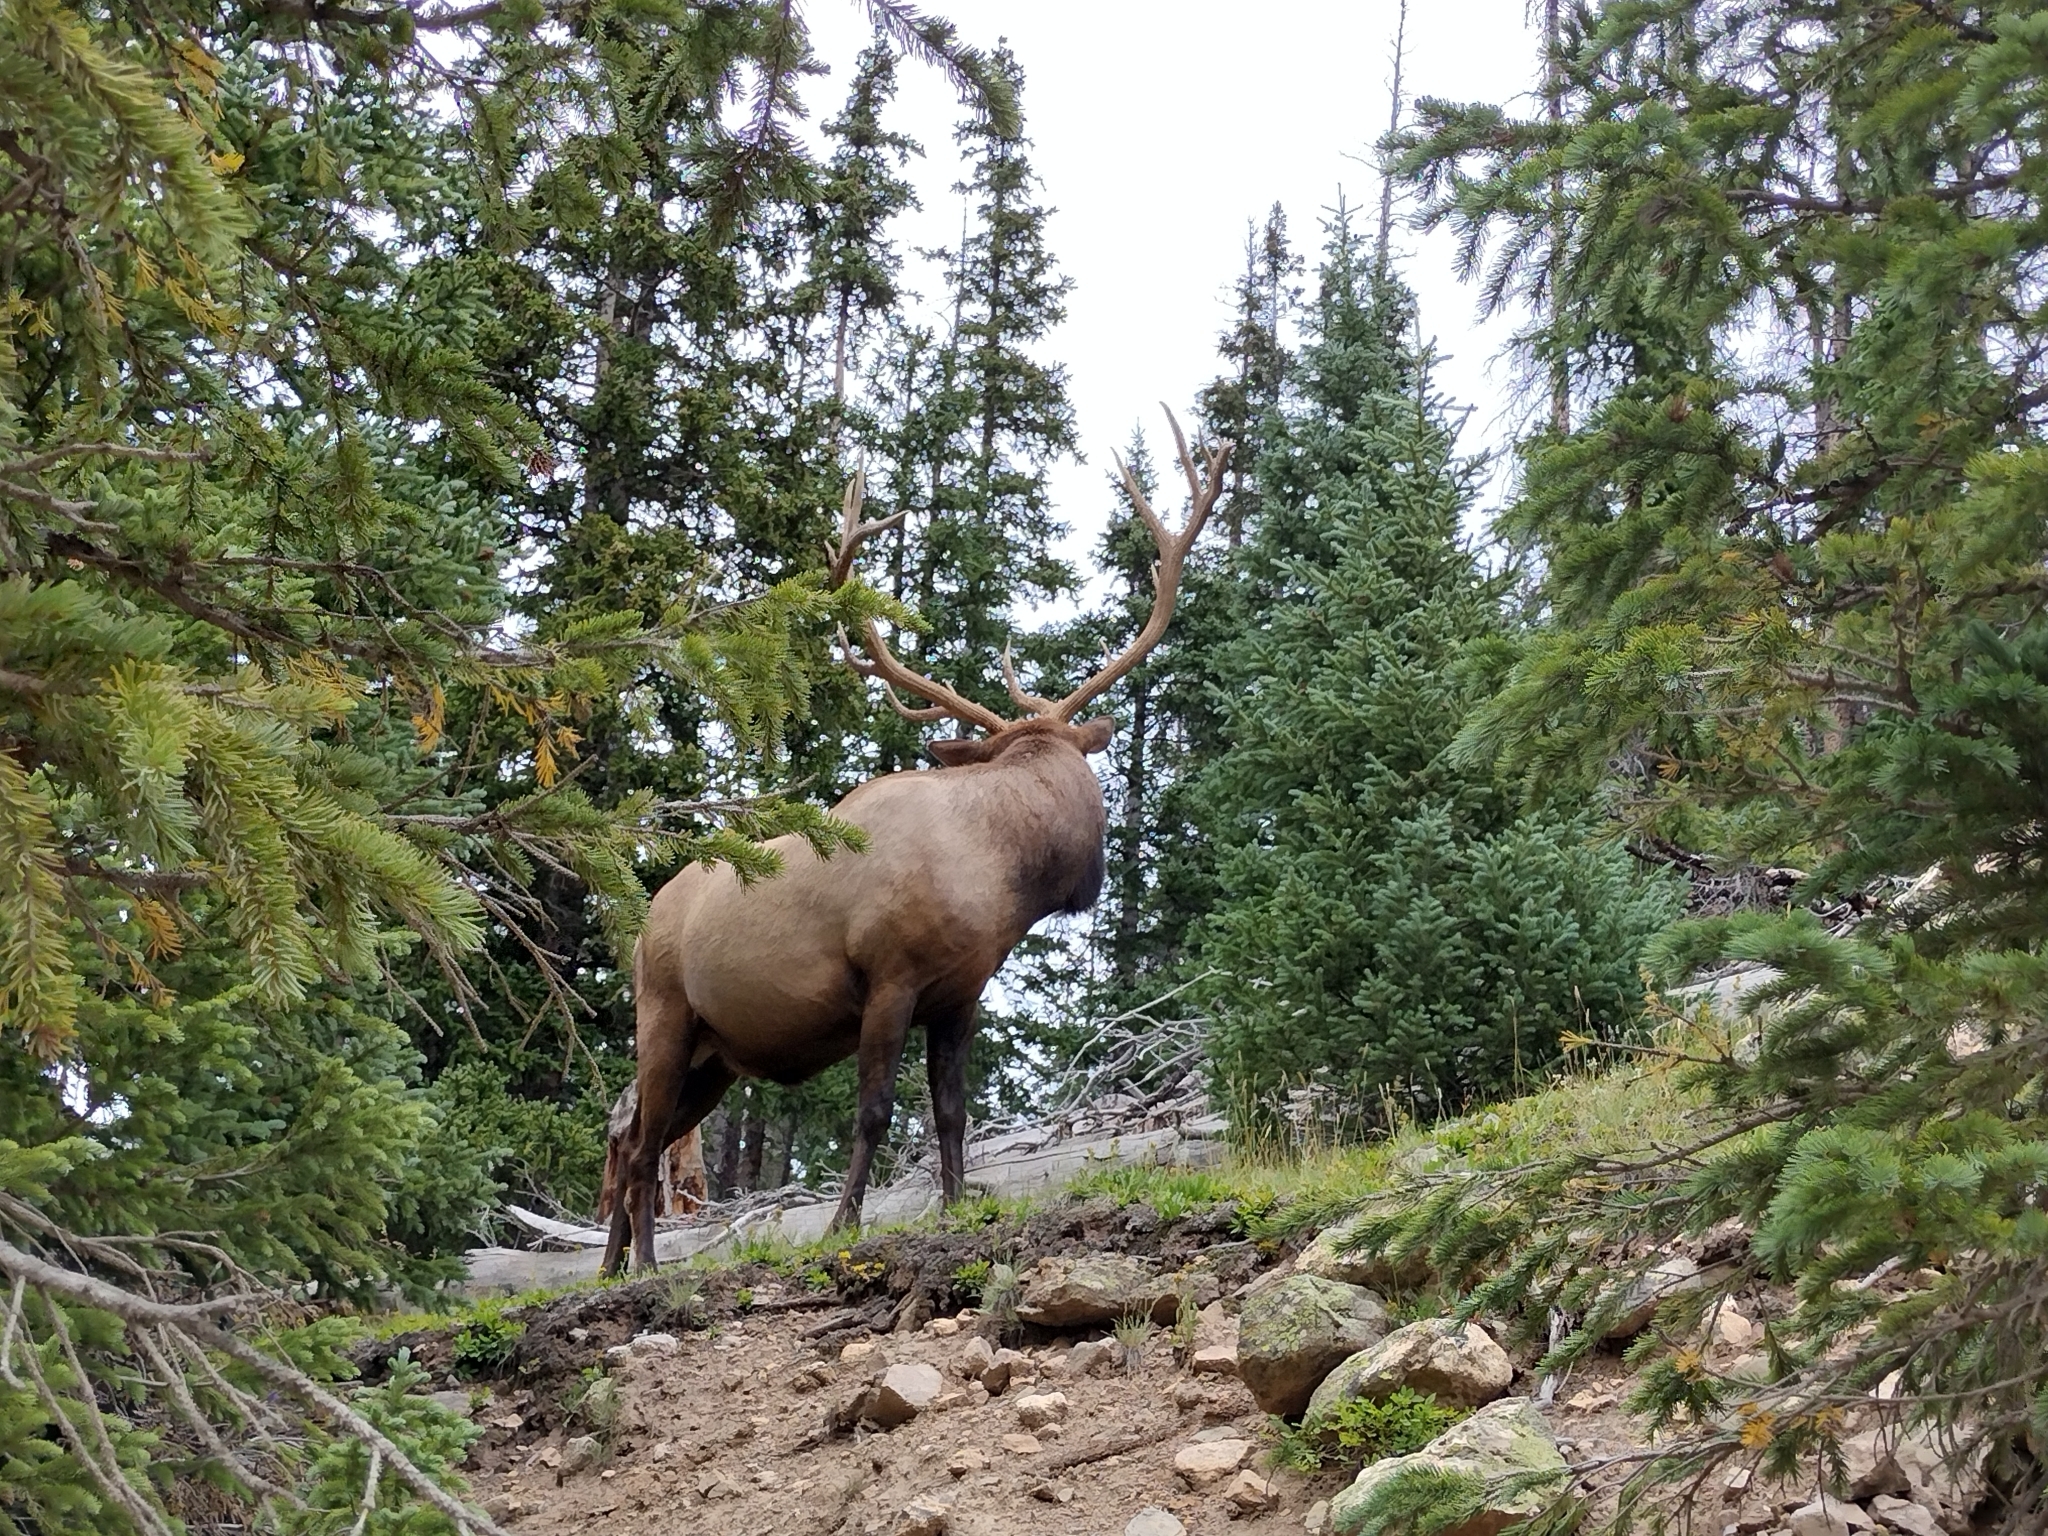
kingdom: Animalia
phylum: Chordata
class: Mammalia
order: Artiodactyla
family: Cervidae
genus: Cervus
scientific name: Cervus elaphus
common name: Red deer
